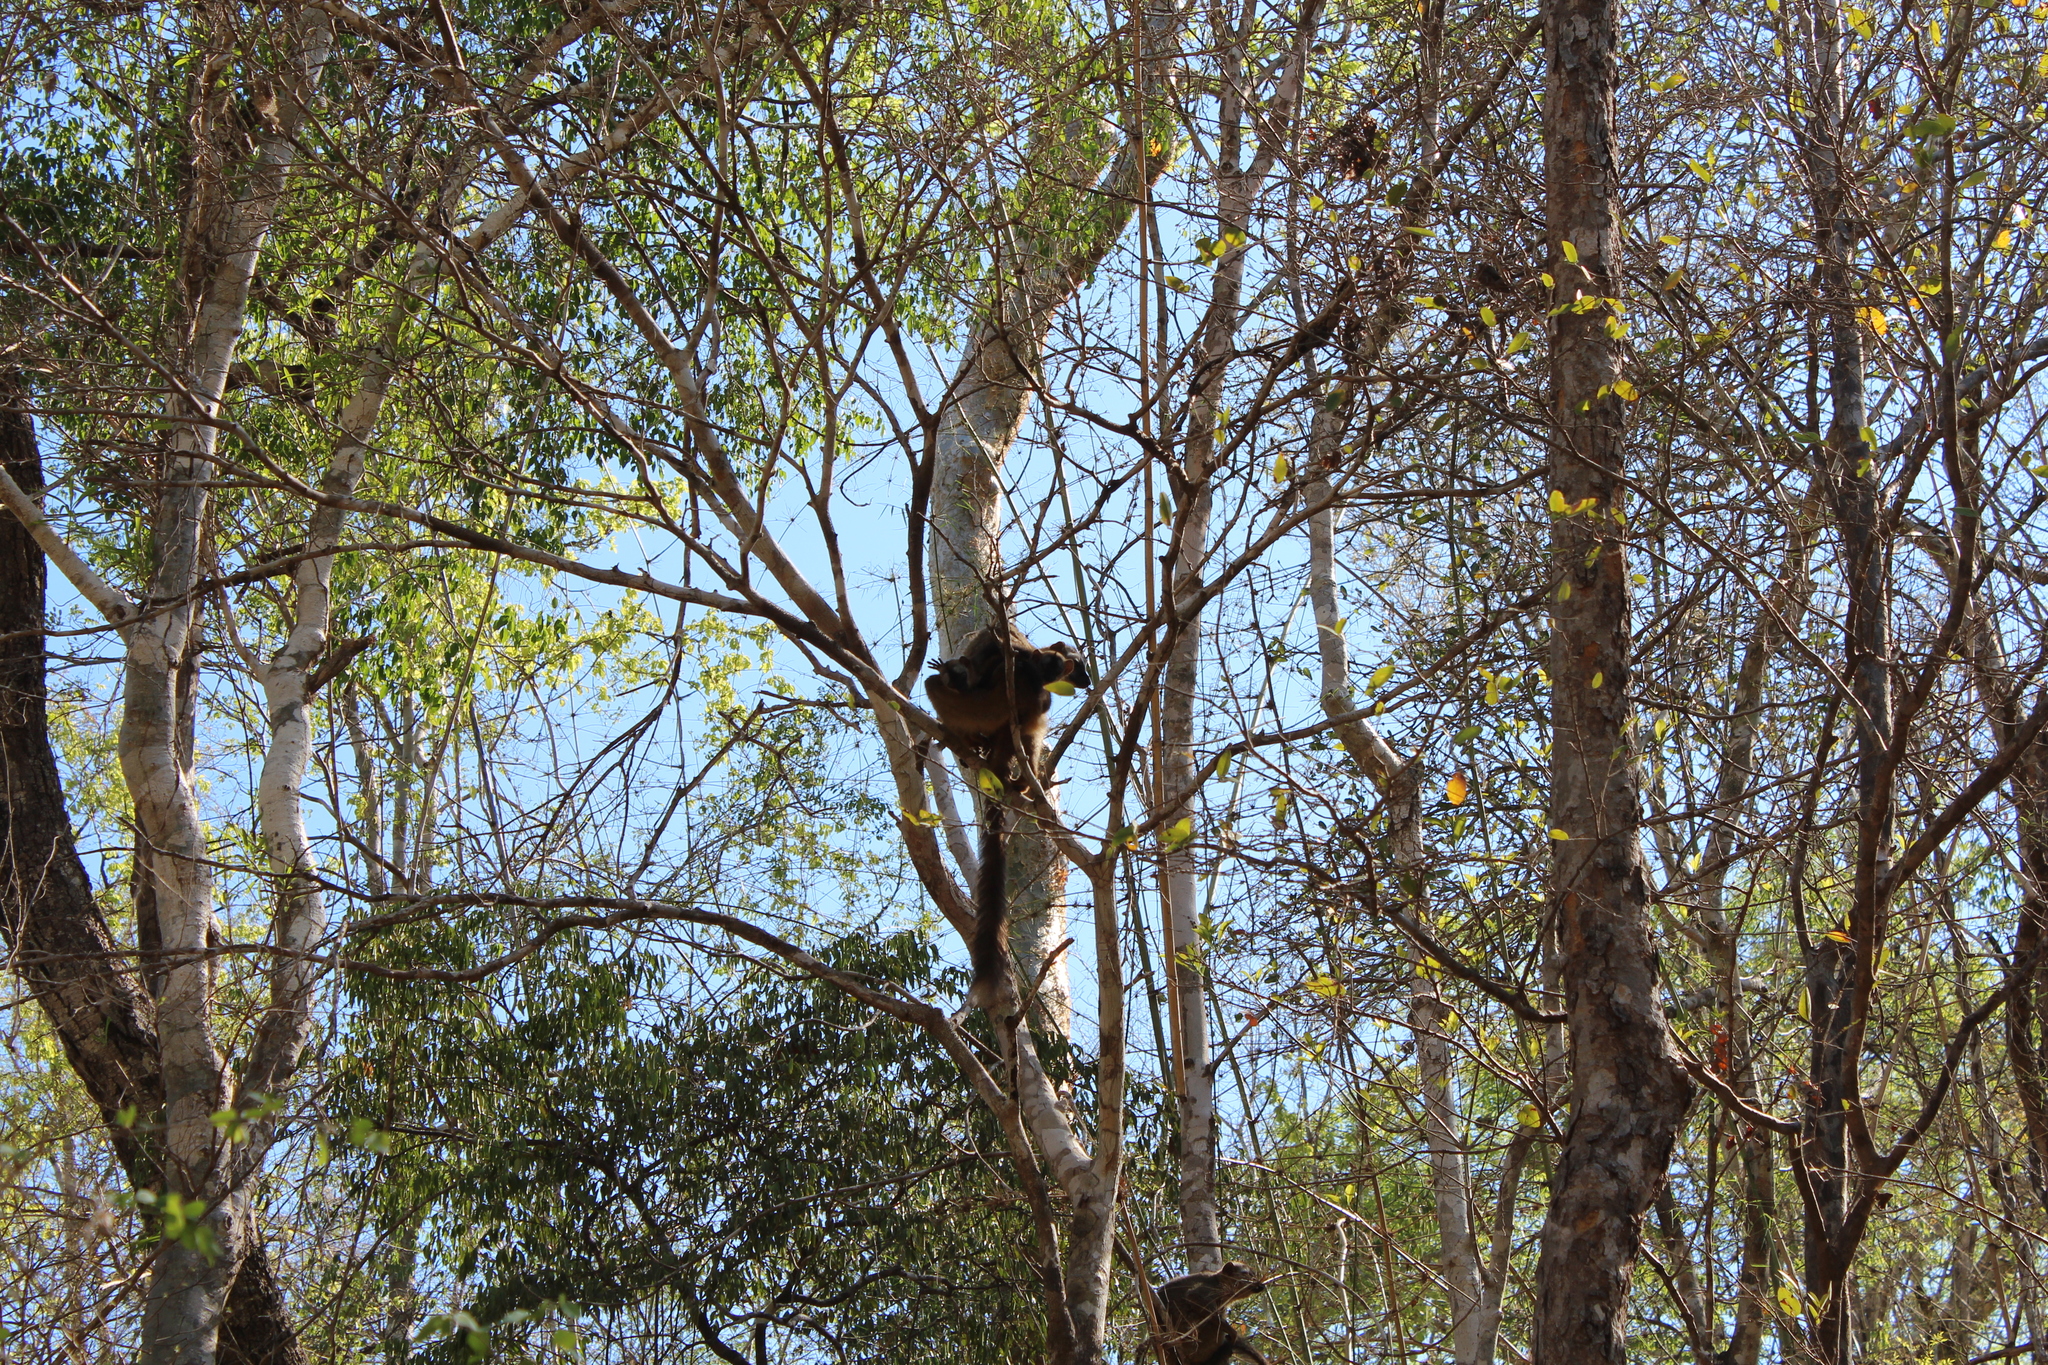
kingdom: Animalia
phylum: Chordata
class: Mammalia
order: Primates
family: Lemuridae
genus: Eulemur
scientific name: Eulemur rufifrons
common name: Red-fronted brown lemur
